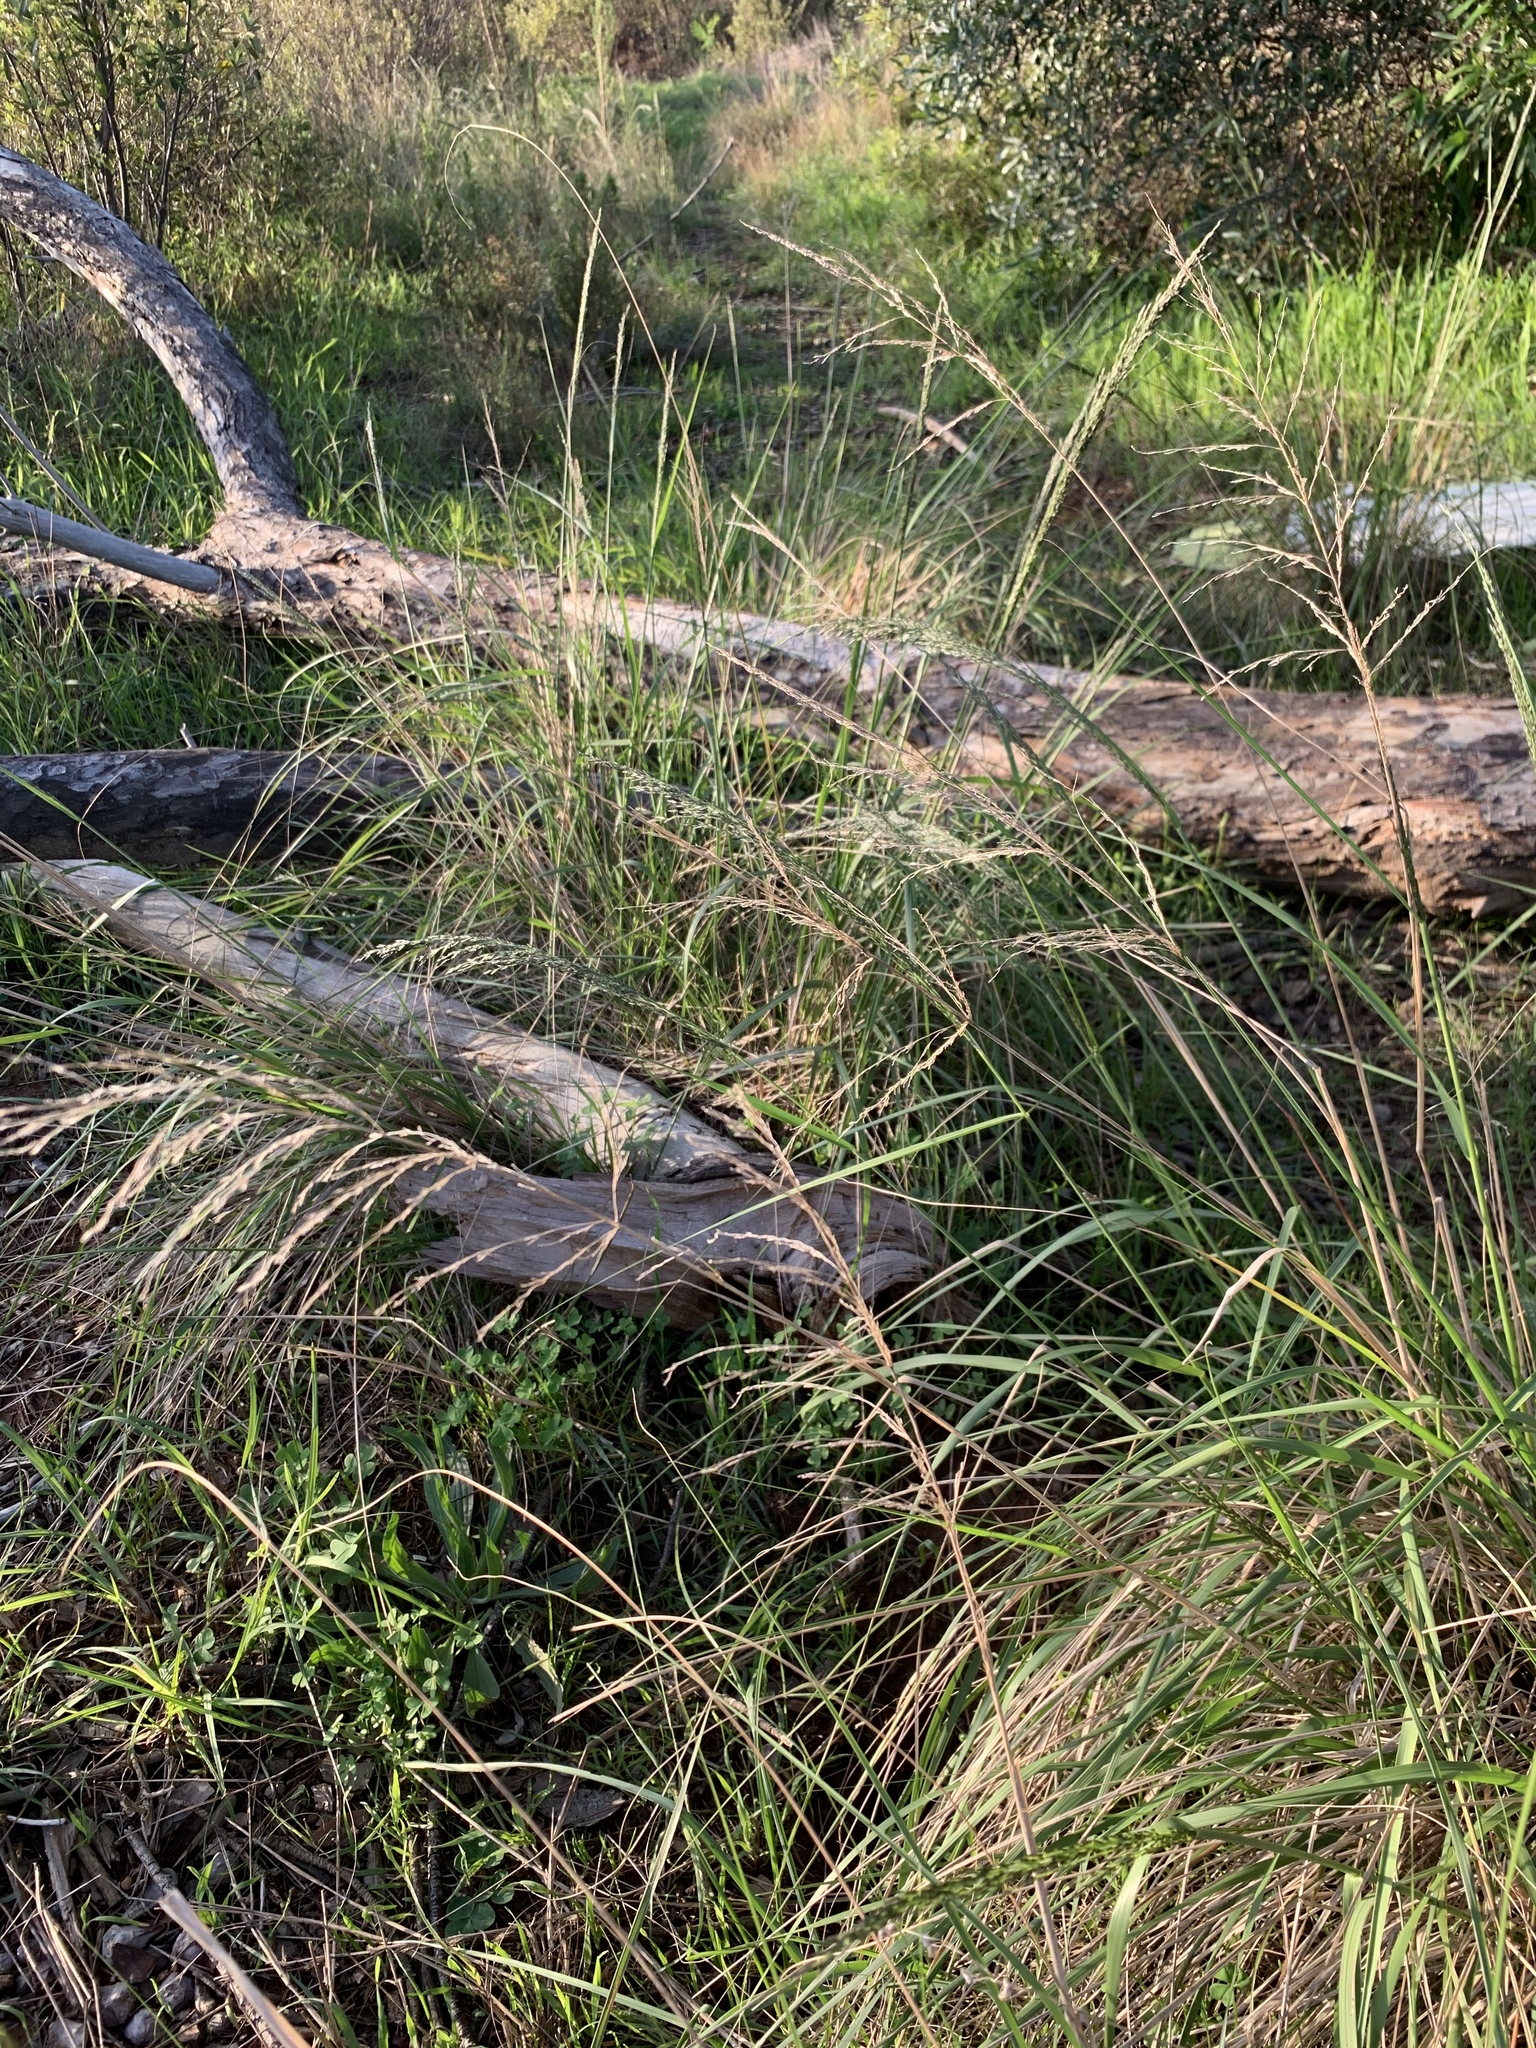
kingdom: Plantae
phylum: Tracheophyta
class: Liliopsida
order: Poales
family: Poaceae
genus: Eragrostis
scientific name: Eragrostis curvula
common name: African love-grass
